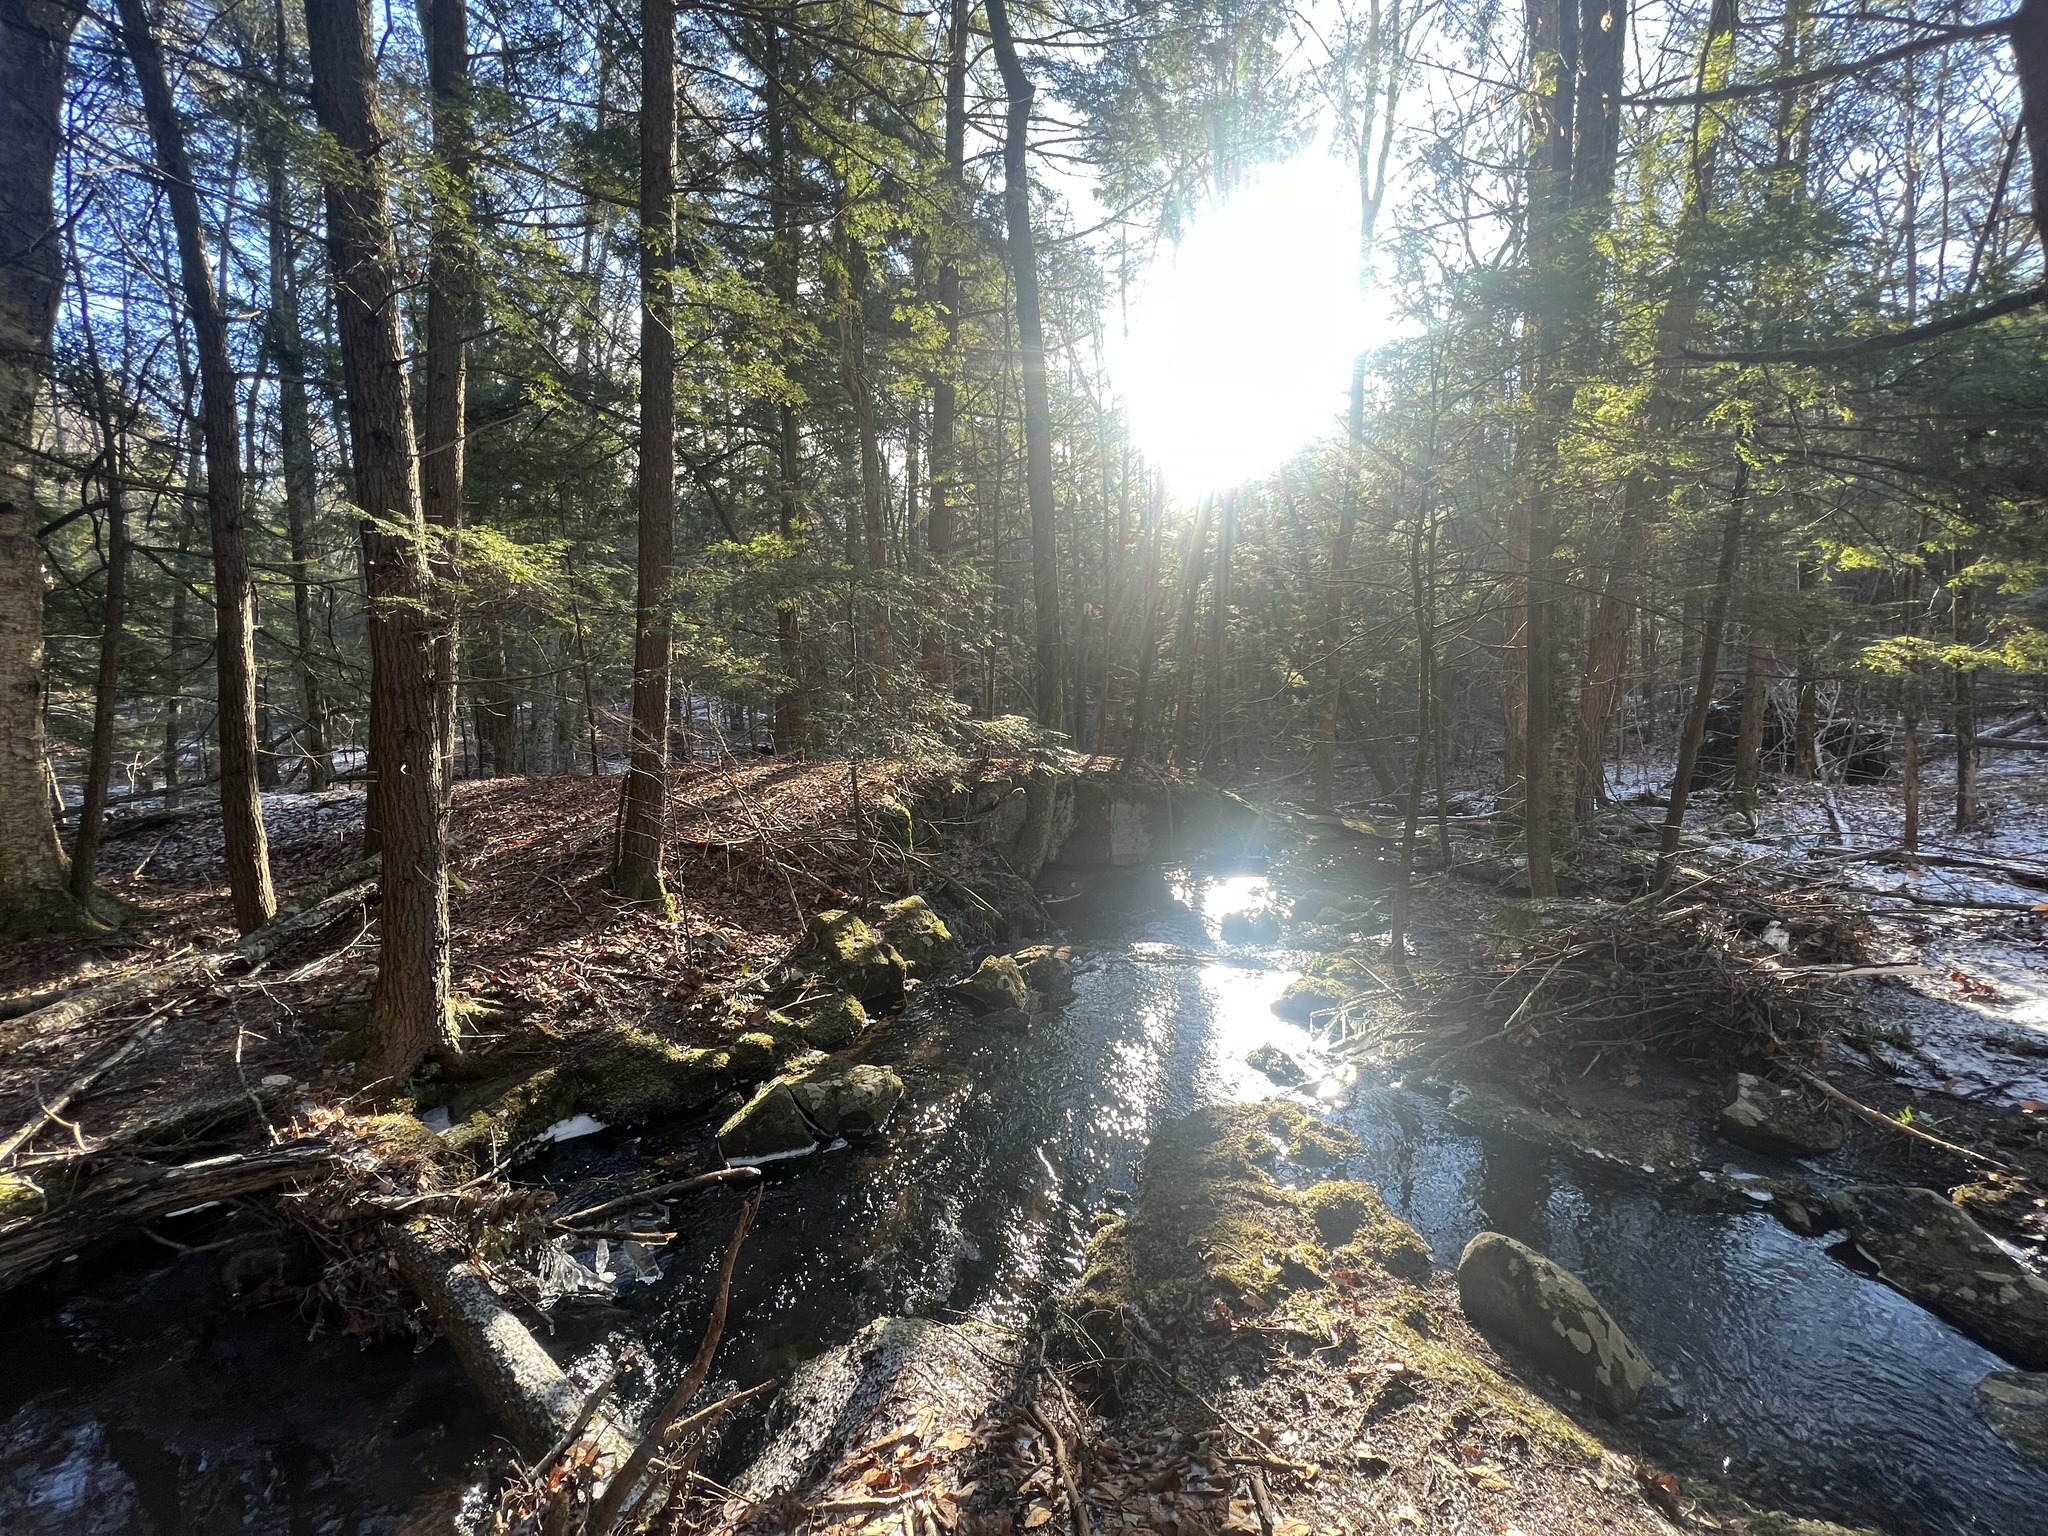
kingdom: Plantae
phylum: Tracheophyta
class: Pinopsida
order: Pinales
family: Pinaceae
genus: Tsuga
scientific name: Tsuga canadensis
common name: Eastern hemlock
